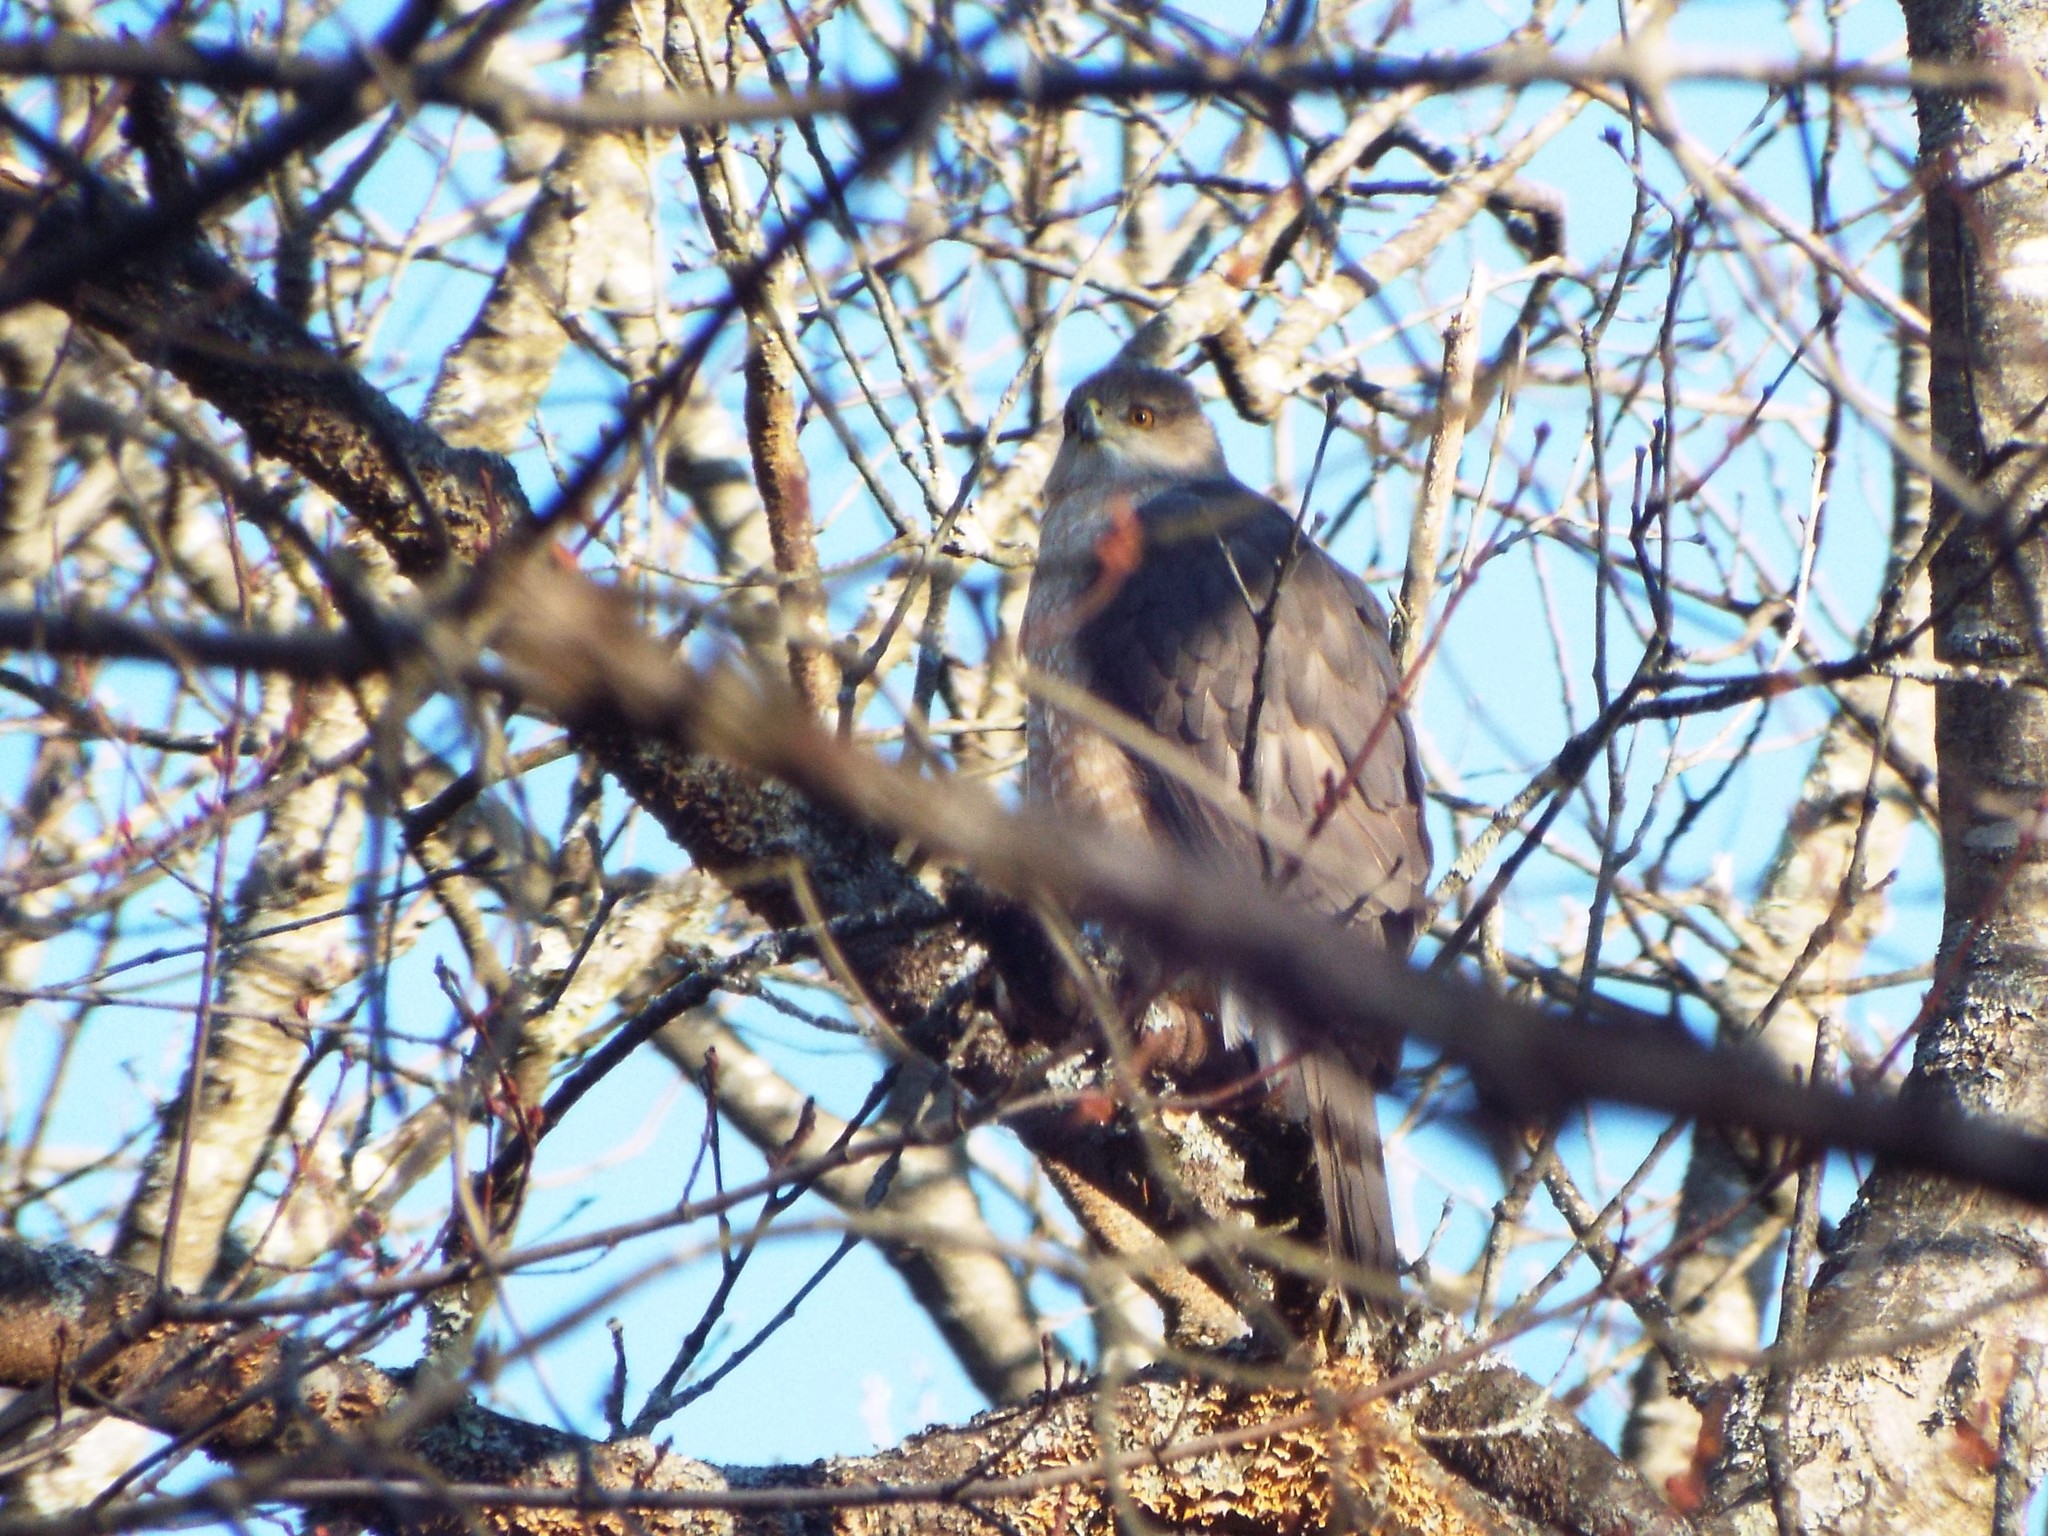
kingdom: Animalia
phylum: Chordata
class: Aves
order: Accipitriformes
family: Accipitridae
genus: Accipiter
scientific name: Accipiter cooperii
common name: Cooper's hawk
